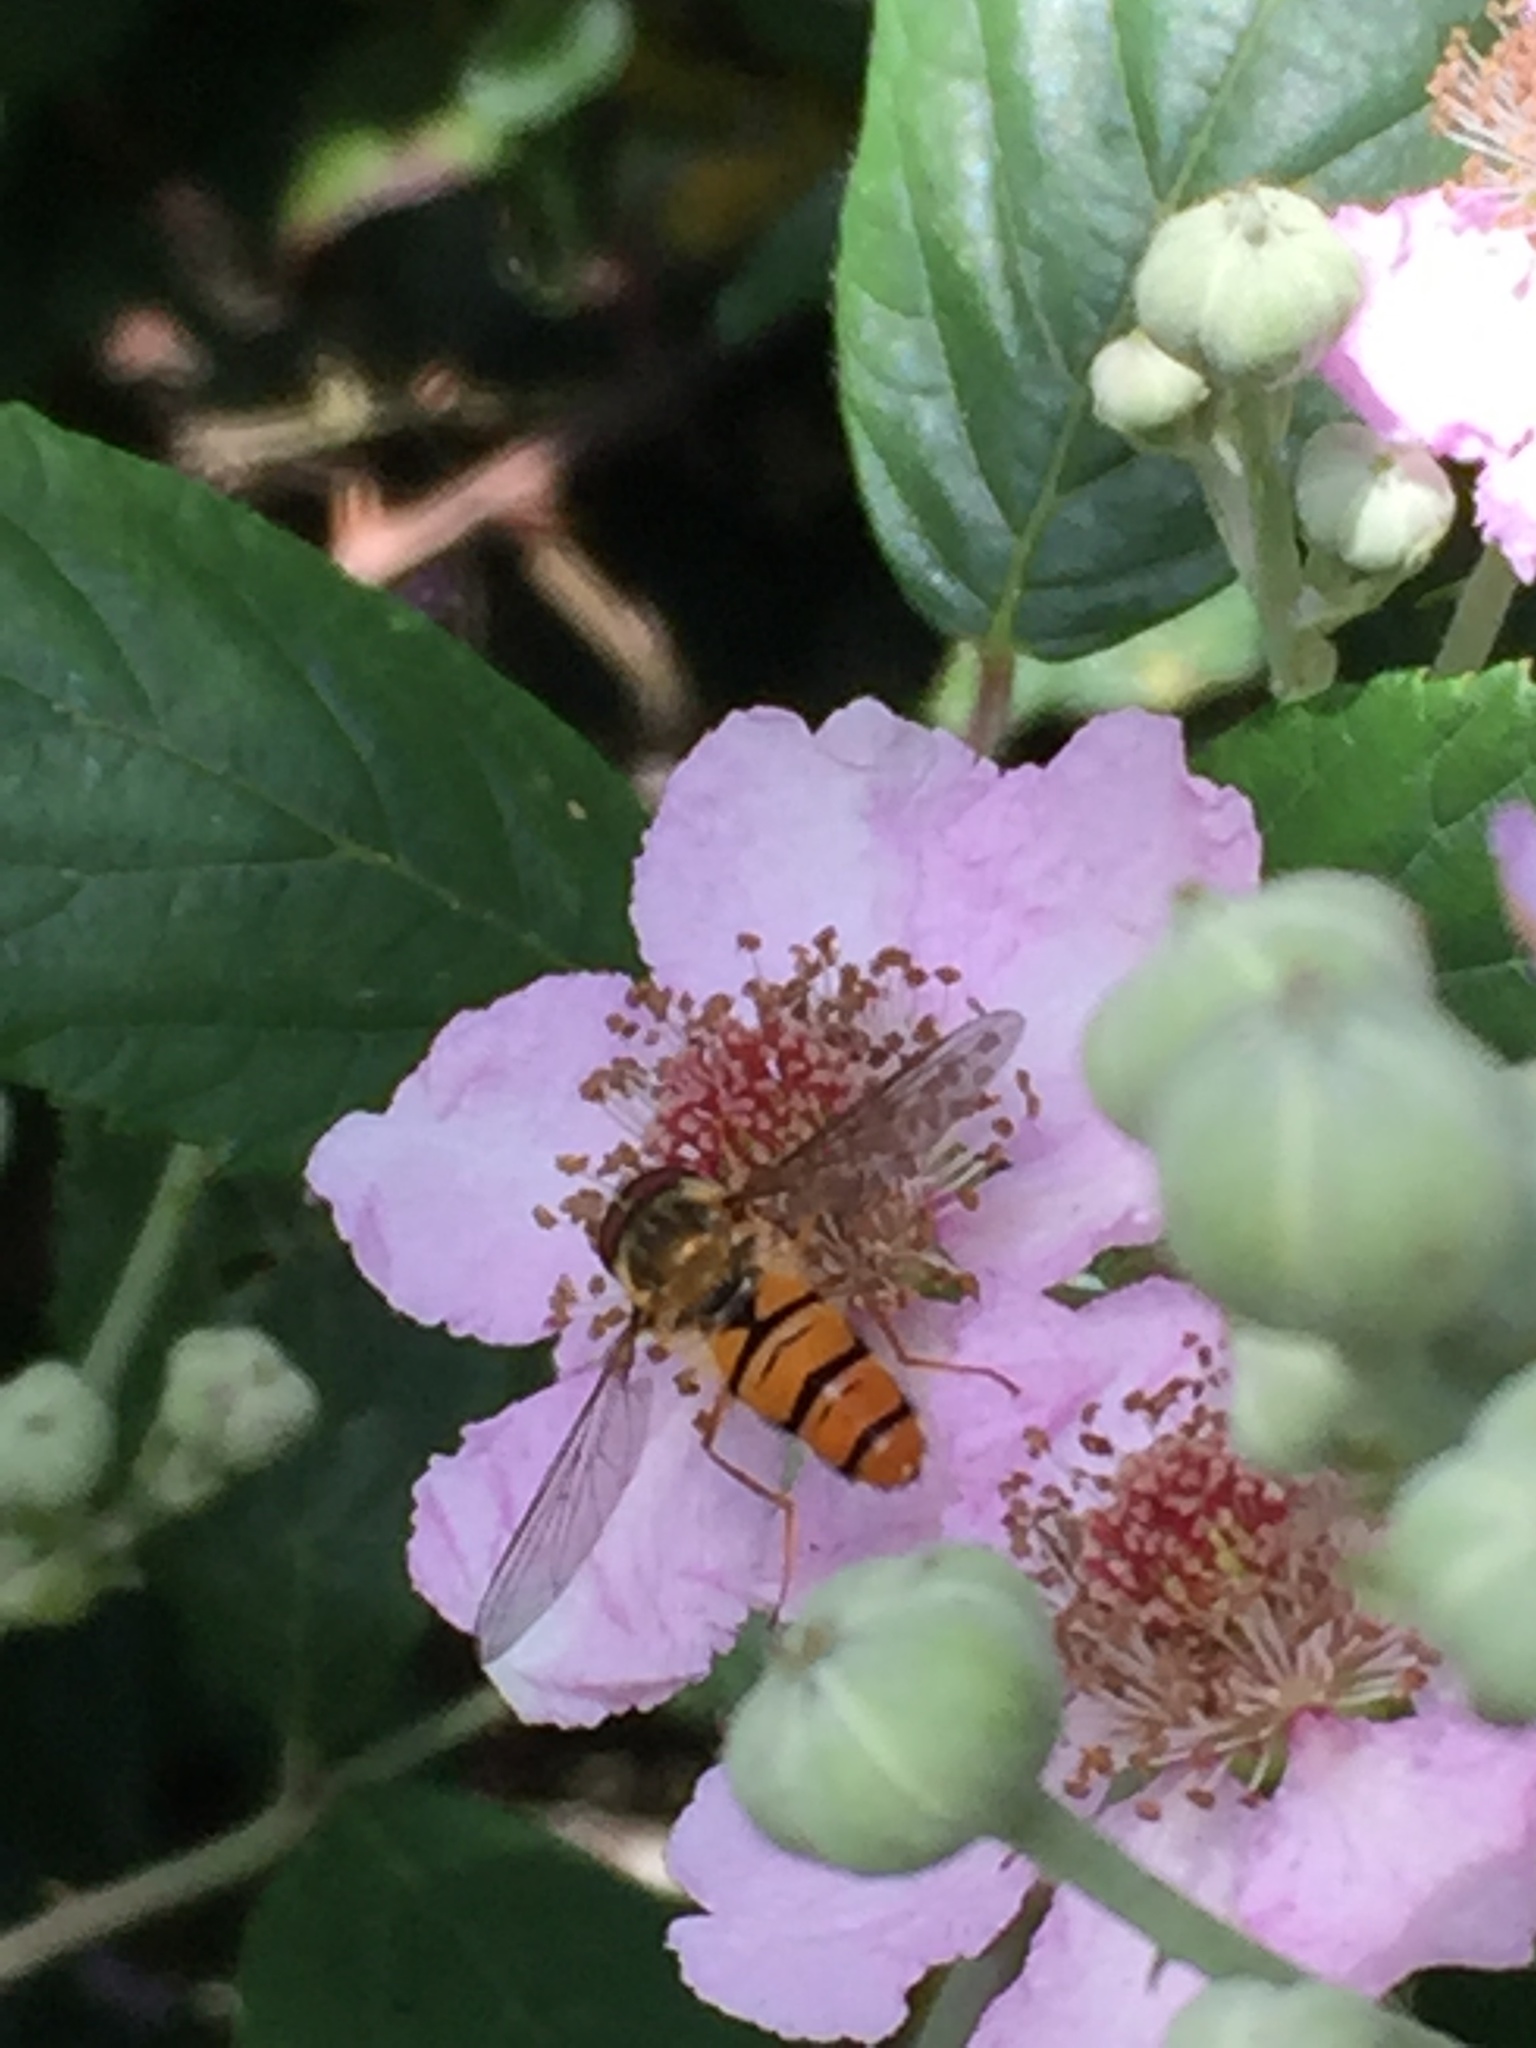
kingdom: Animalia
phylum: Arthropoda
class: Insecta
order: Diptera
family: Syrphidae
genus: Episyrphus
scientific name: Episyrphus balteatus
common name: Marmalade hoverfly
